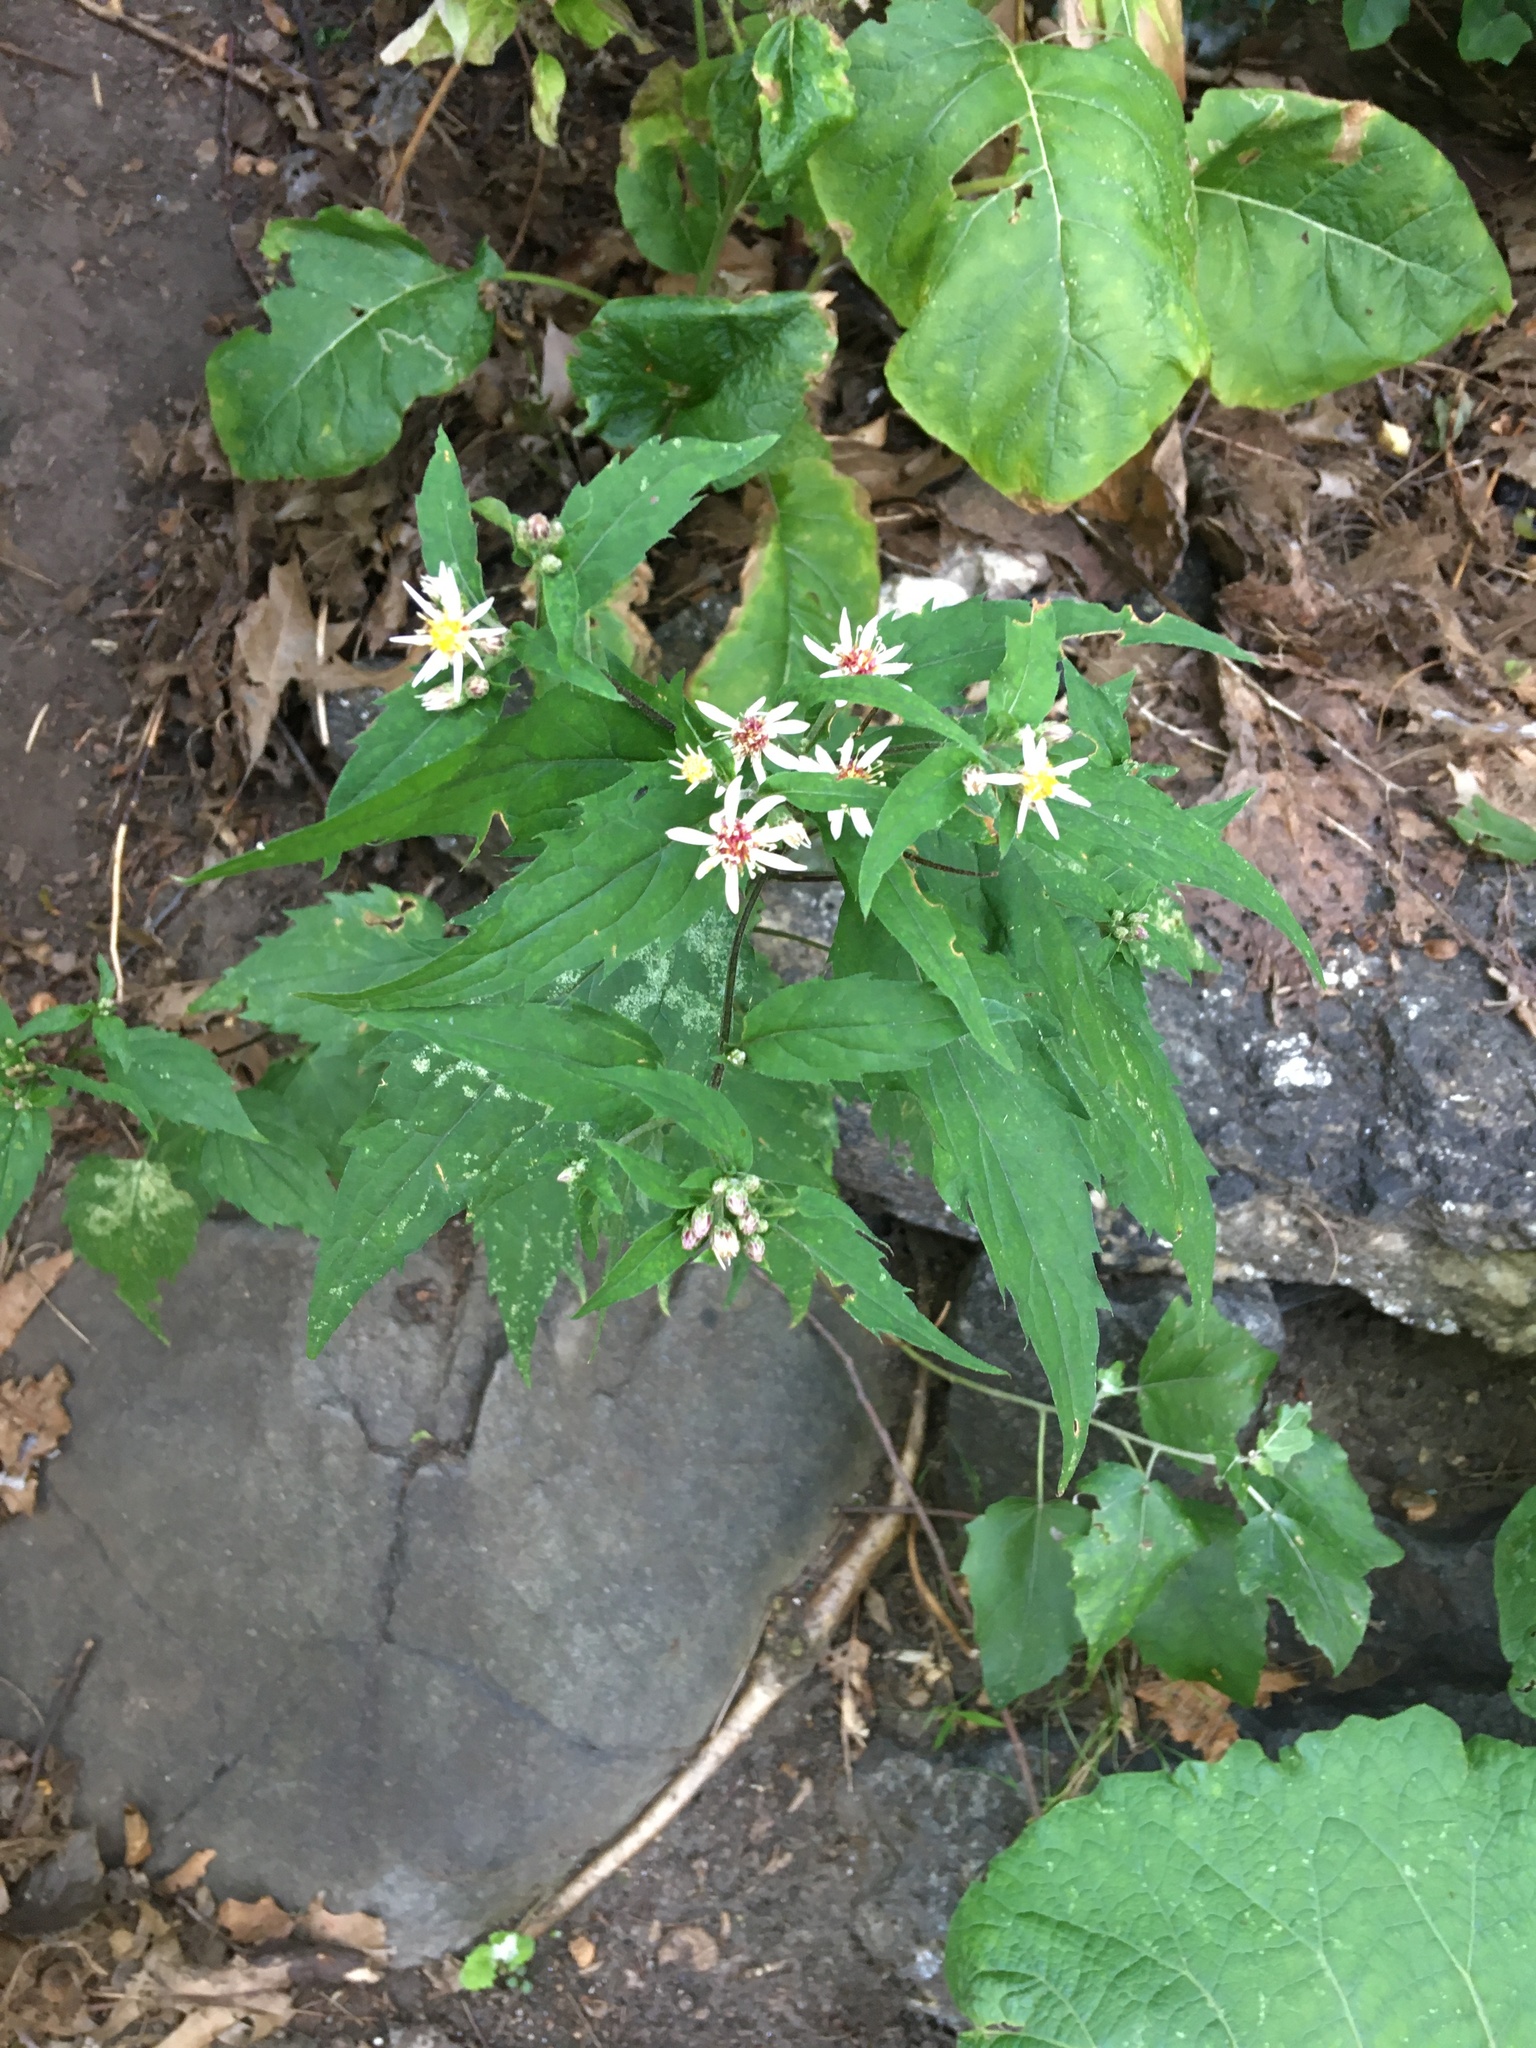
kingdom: Plantae
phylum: Tracheophyta
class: Magnoliopsida
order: Asterales
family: Asteraceae
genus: Eurybia
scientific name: Eurybia divaricata
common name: White wood aster
